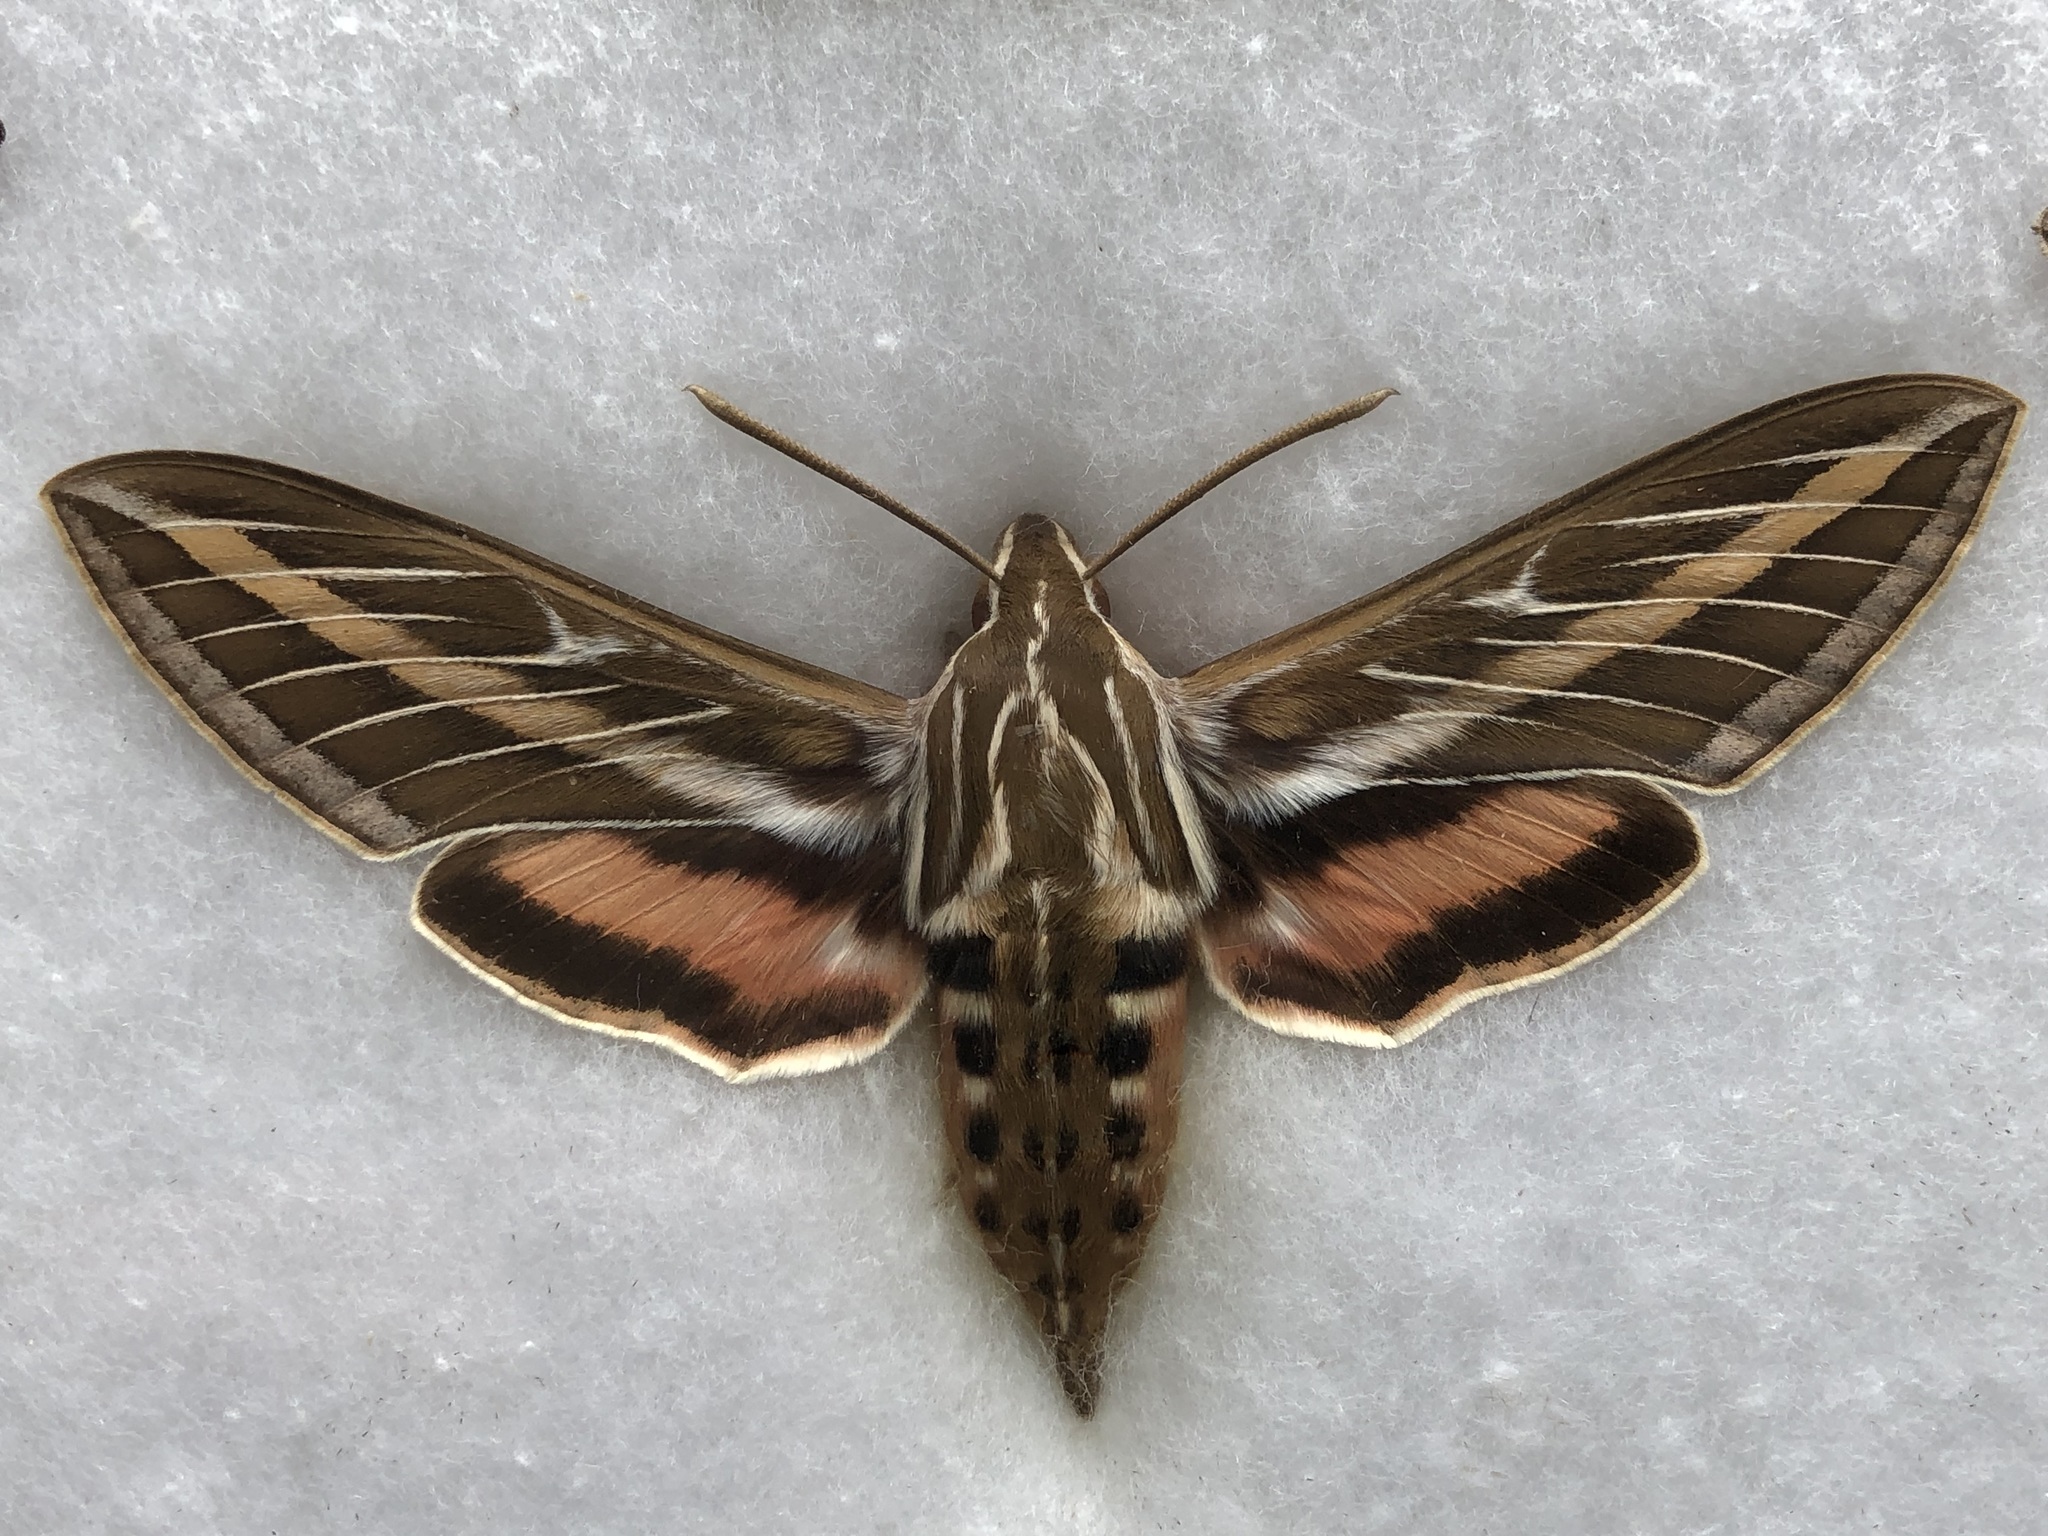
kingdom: Animalia
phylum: Arthropoda
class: Insecta
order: Lepidoptera
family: Sphingidae
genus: Hyles
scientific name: Hyles lineata
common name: White-lined sphinx
